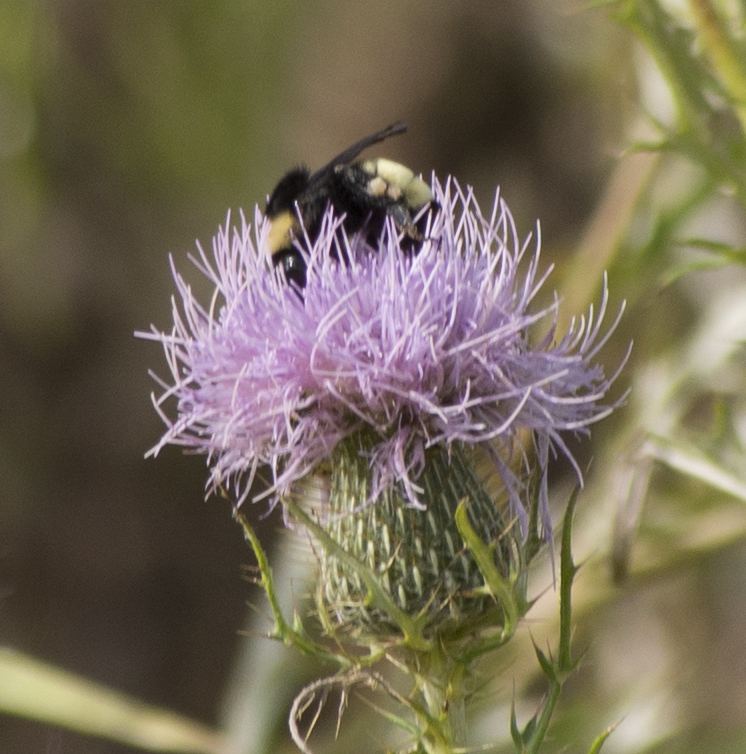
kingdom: Animalia
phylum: Arthropoda
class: Insecta
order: Hymenoptera
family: Apidae
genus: Bombus
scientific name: Bombus pensylvanicus
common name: Bumble bee
